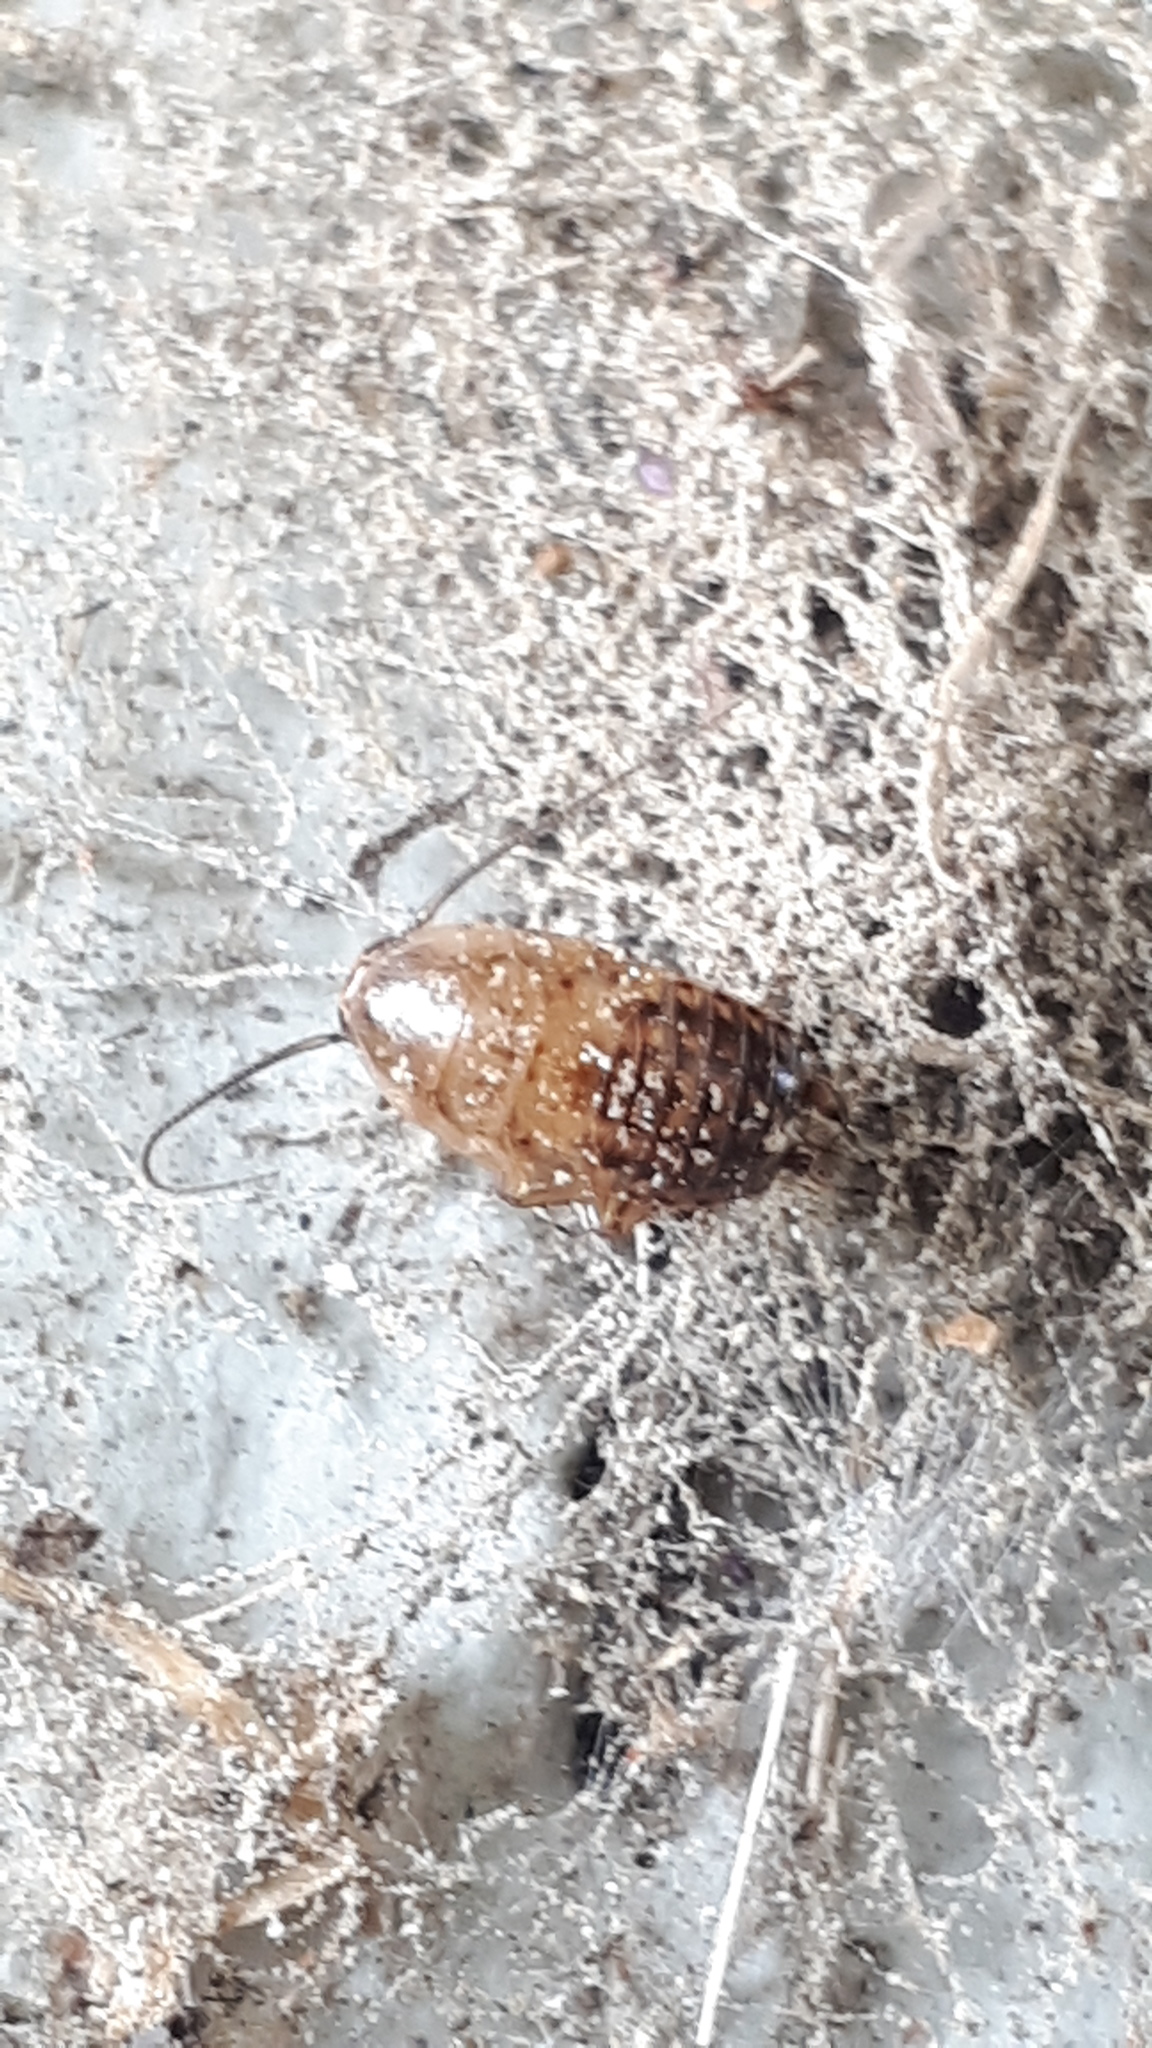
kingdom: Animalia
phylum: Arthropoda
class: Insecta
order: Blattodea
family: Ectobiidae
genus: Ectobius
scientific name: Ectobius lapponicus
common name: Dusky cockroach
